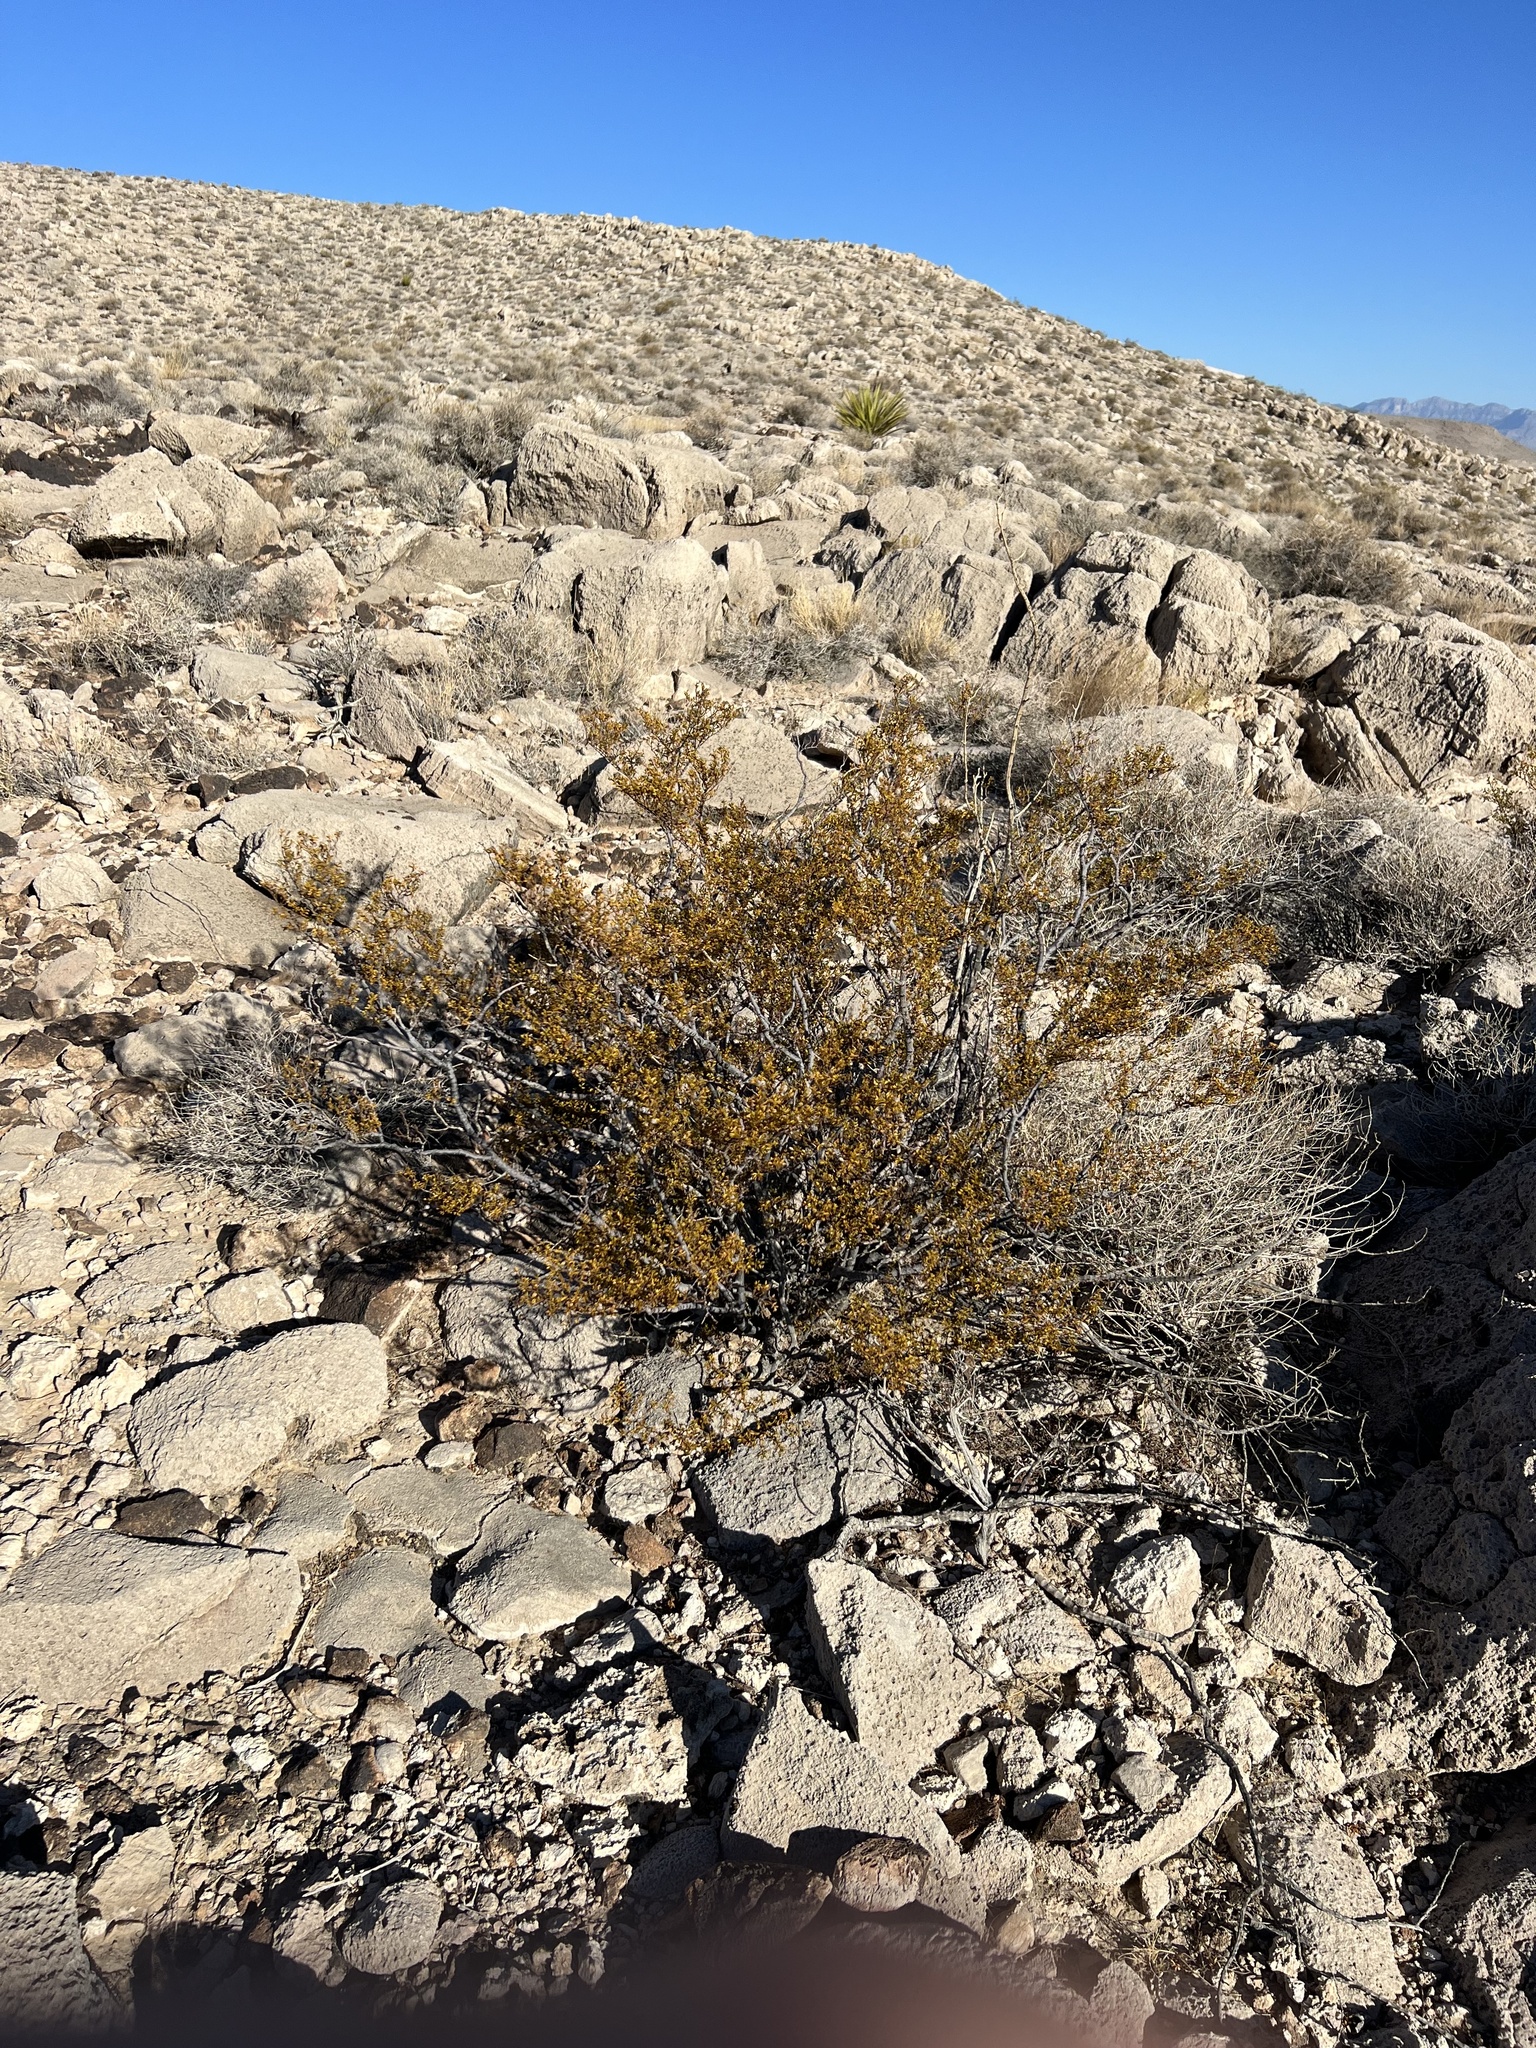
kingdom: Plantae
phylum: Tracheophyta
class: Magnoliopsida
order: Zygophyllales
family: Zygophyllaceae
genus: Larrea
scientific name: Larrea tridentata
